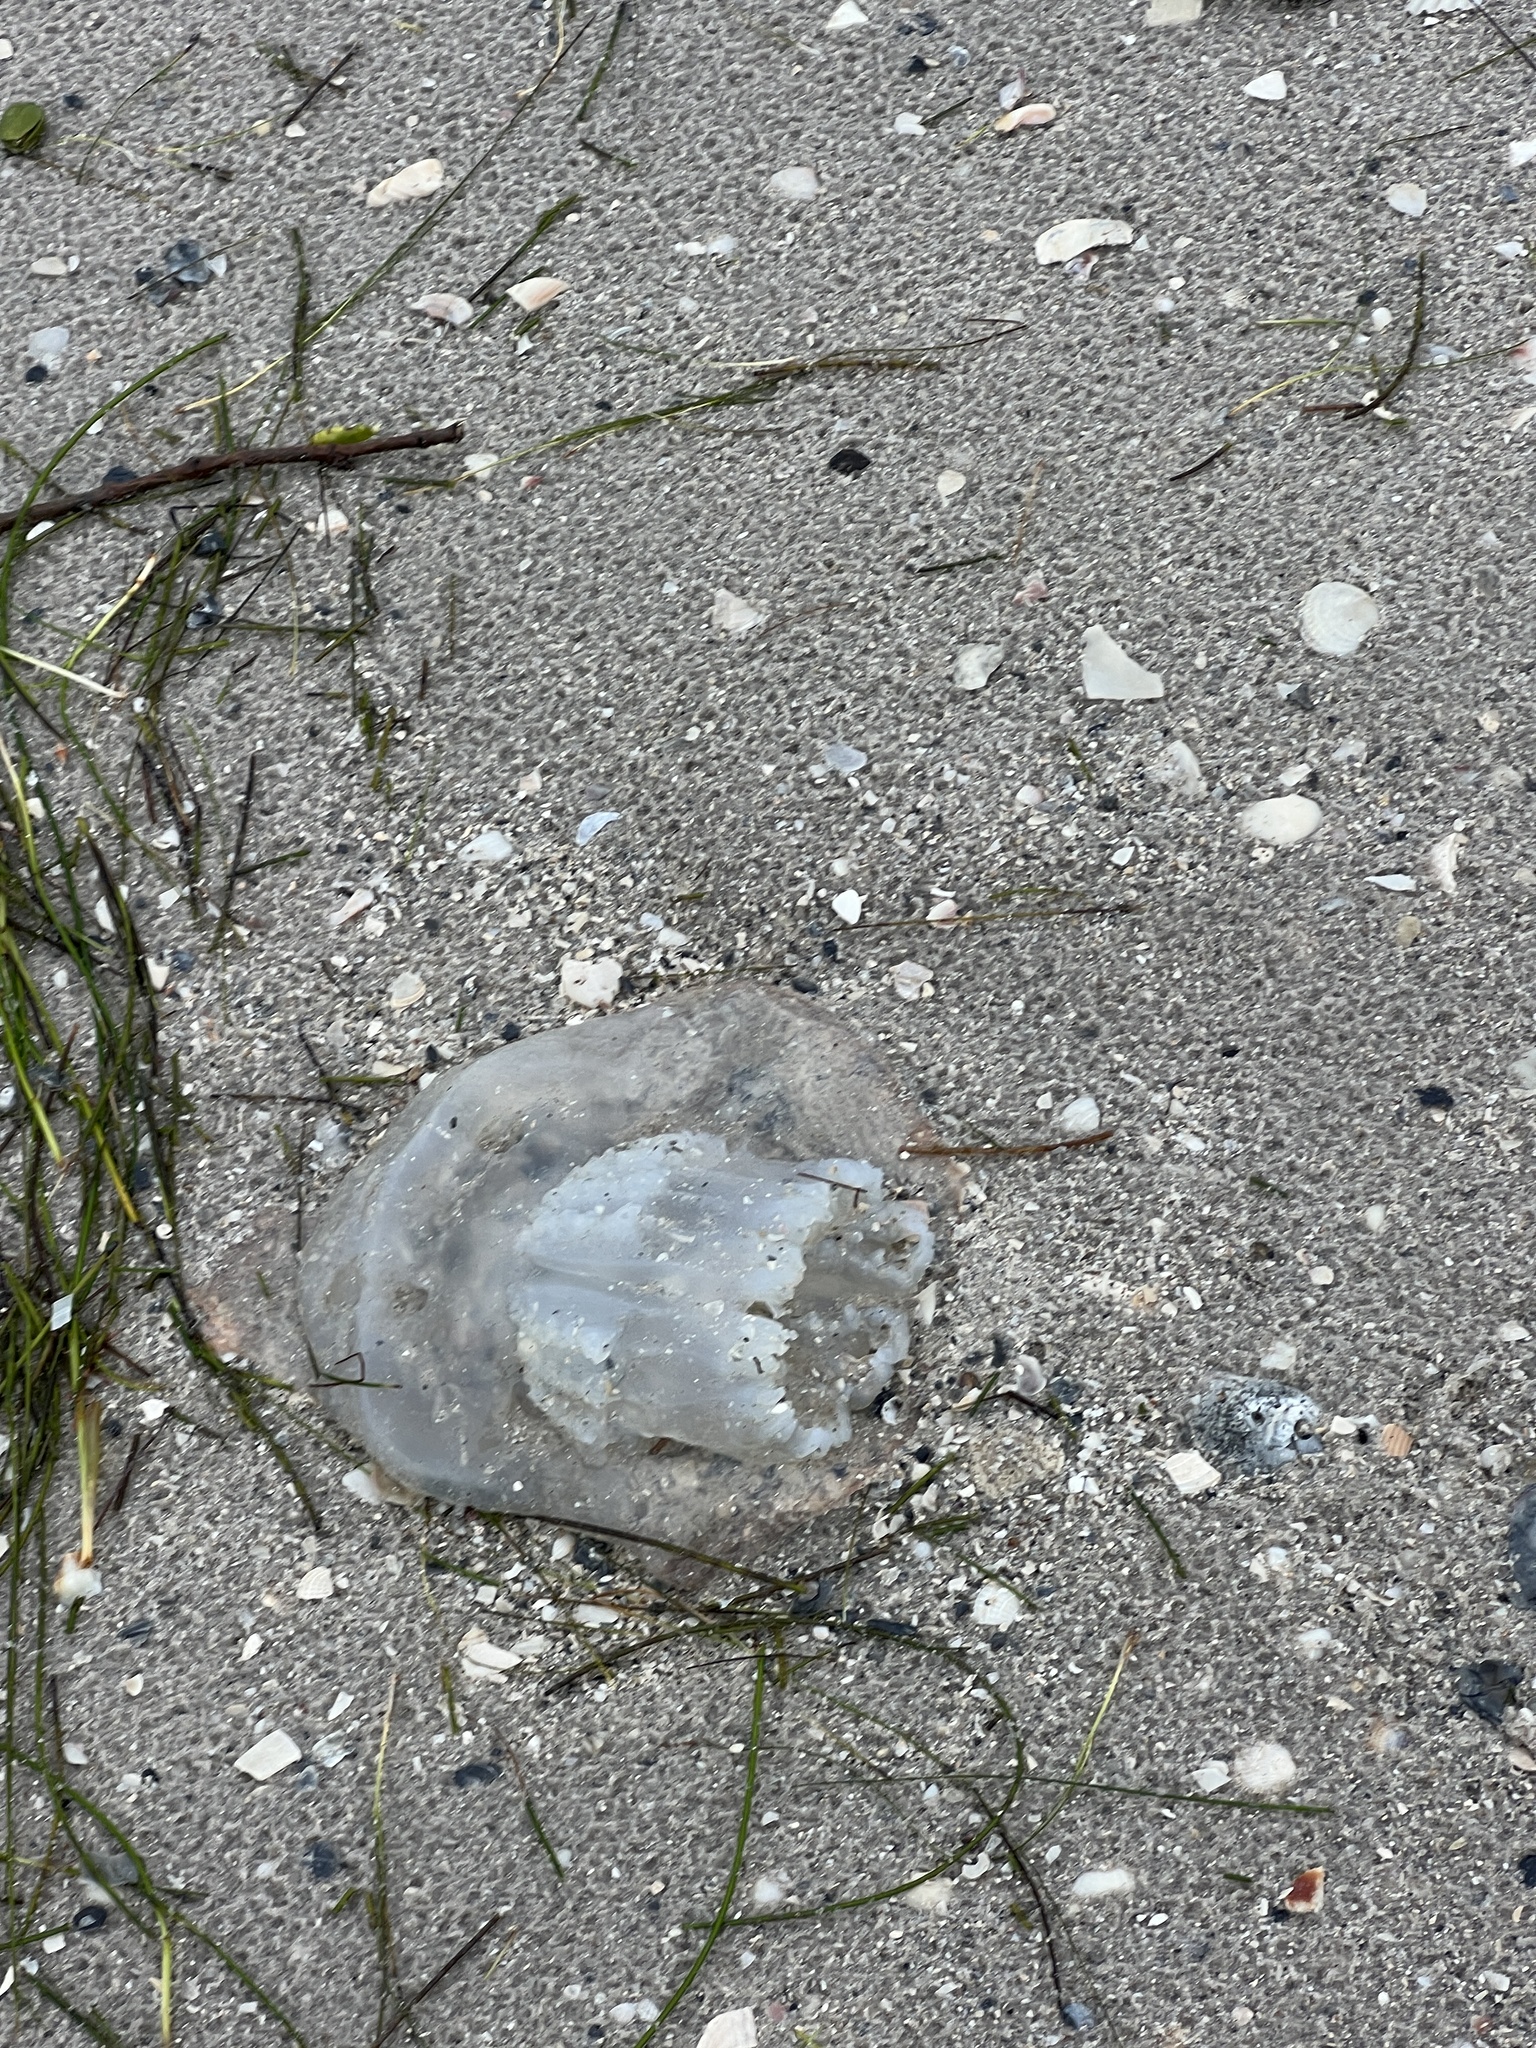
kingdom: Animalia
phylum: Cnidaria
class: Scyphozoa
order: Rhizostomeae
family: Stomolophidae
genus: Stomolophus
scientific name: Stomolophus meleagris
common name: Cabbagehead
